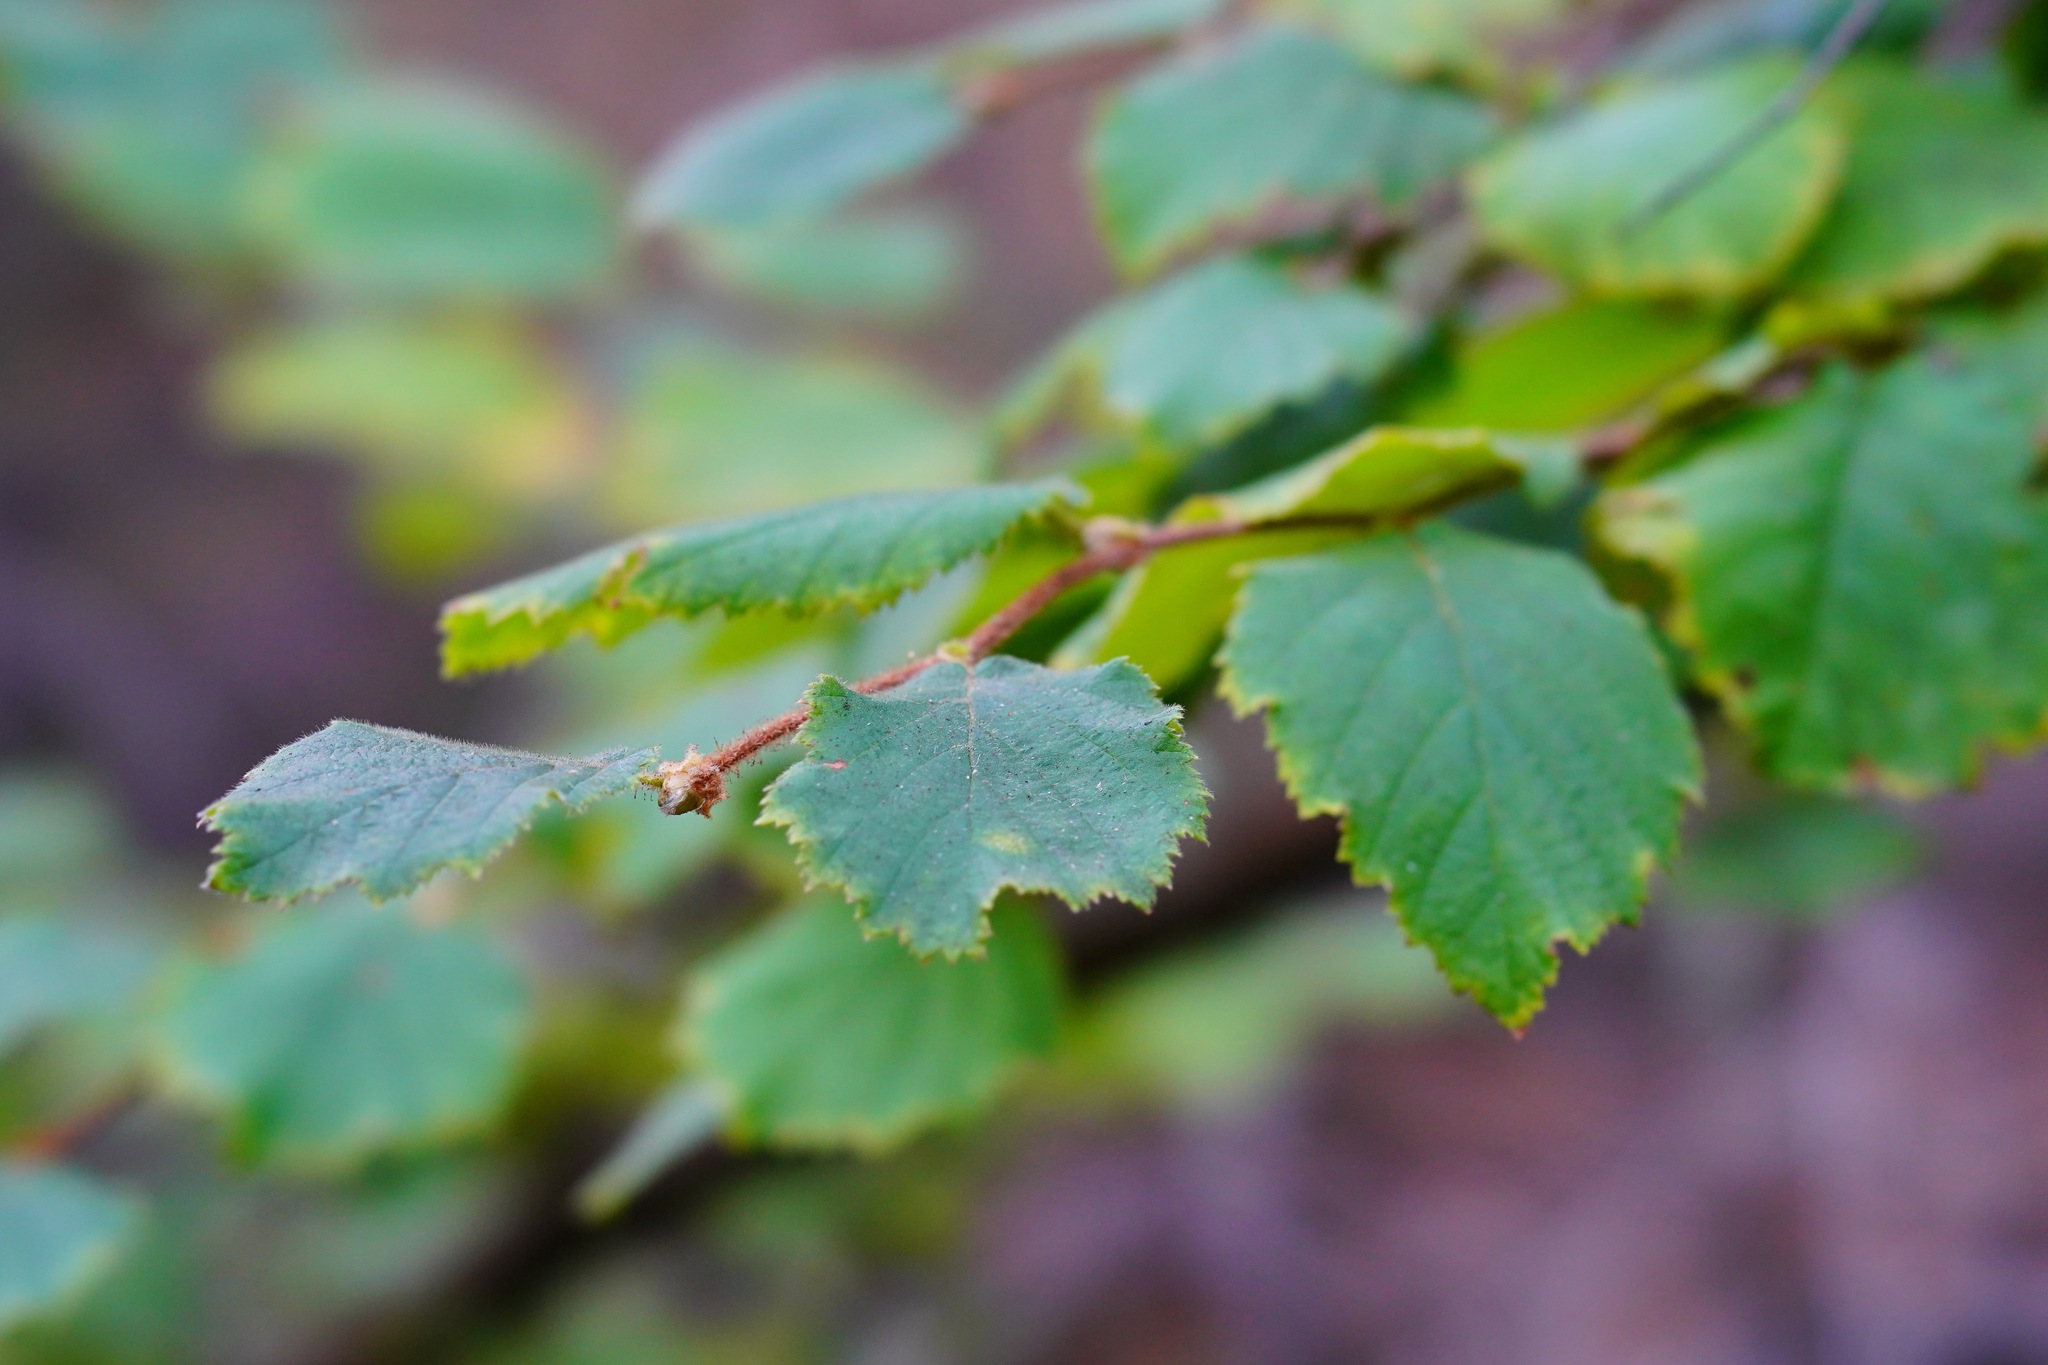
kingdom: Plantae
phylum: Tracheophyta
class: Magnoliopsida
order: Fagales
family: Betulaceae
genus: Corylus
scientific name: Corylus cornuta
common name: Beaked hazel
